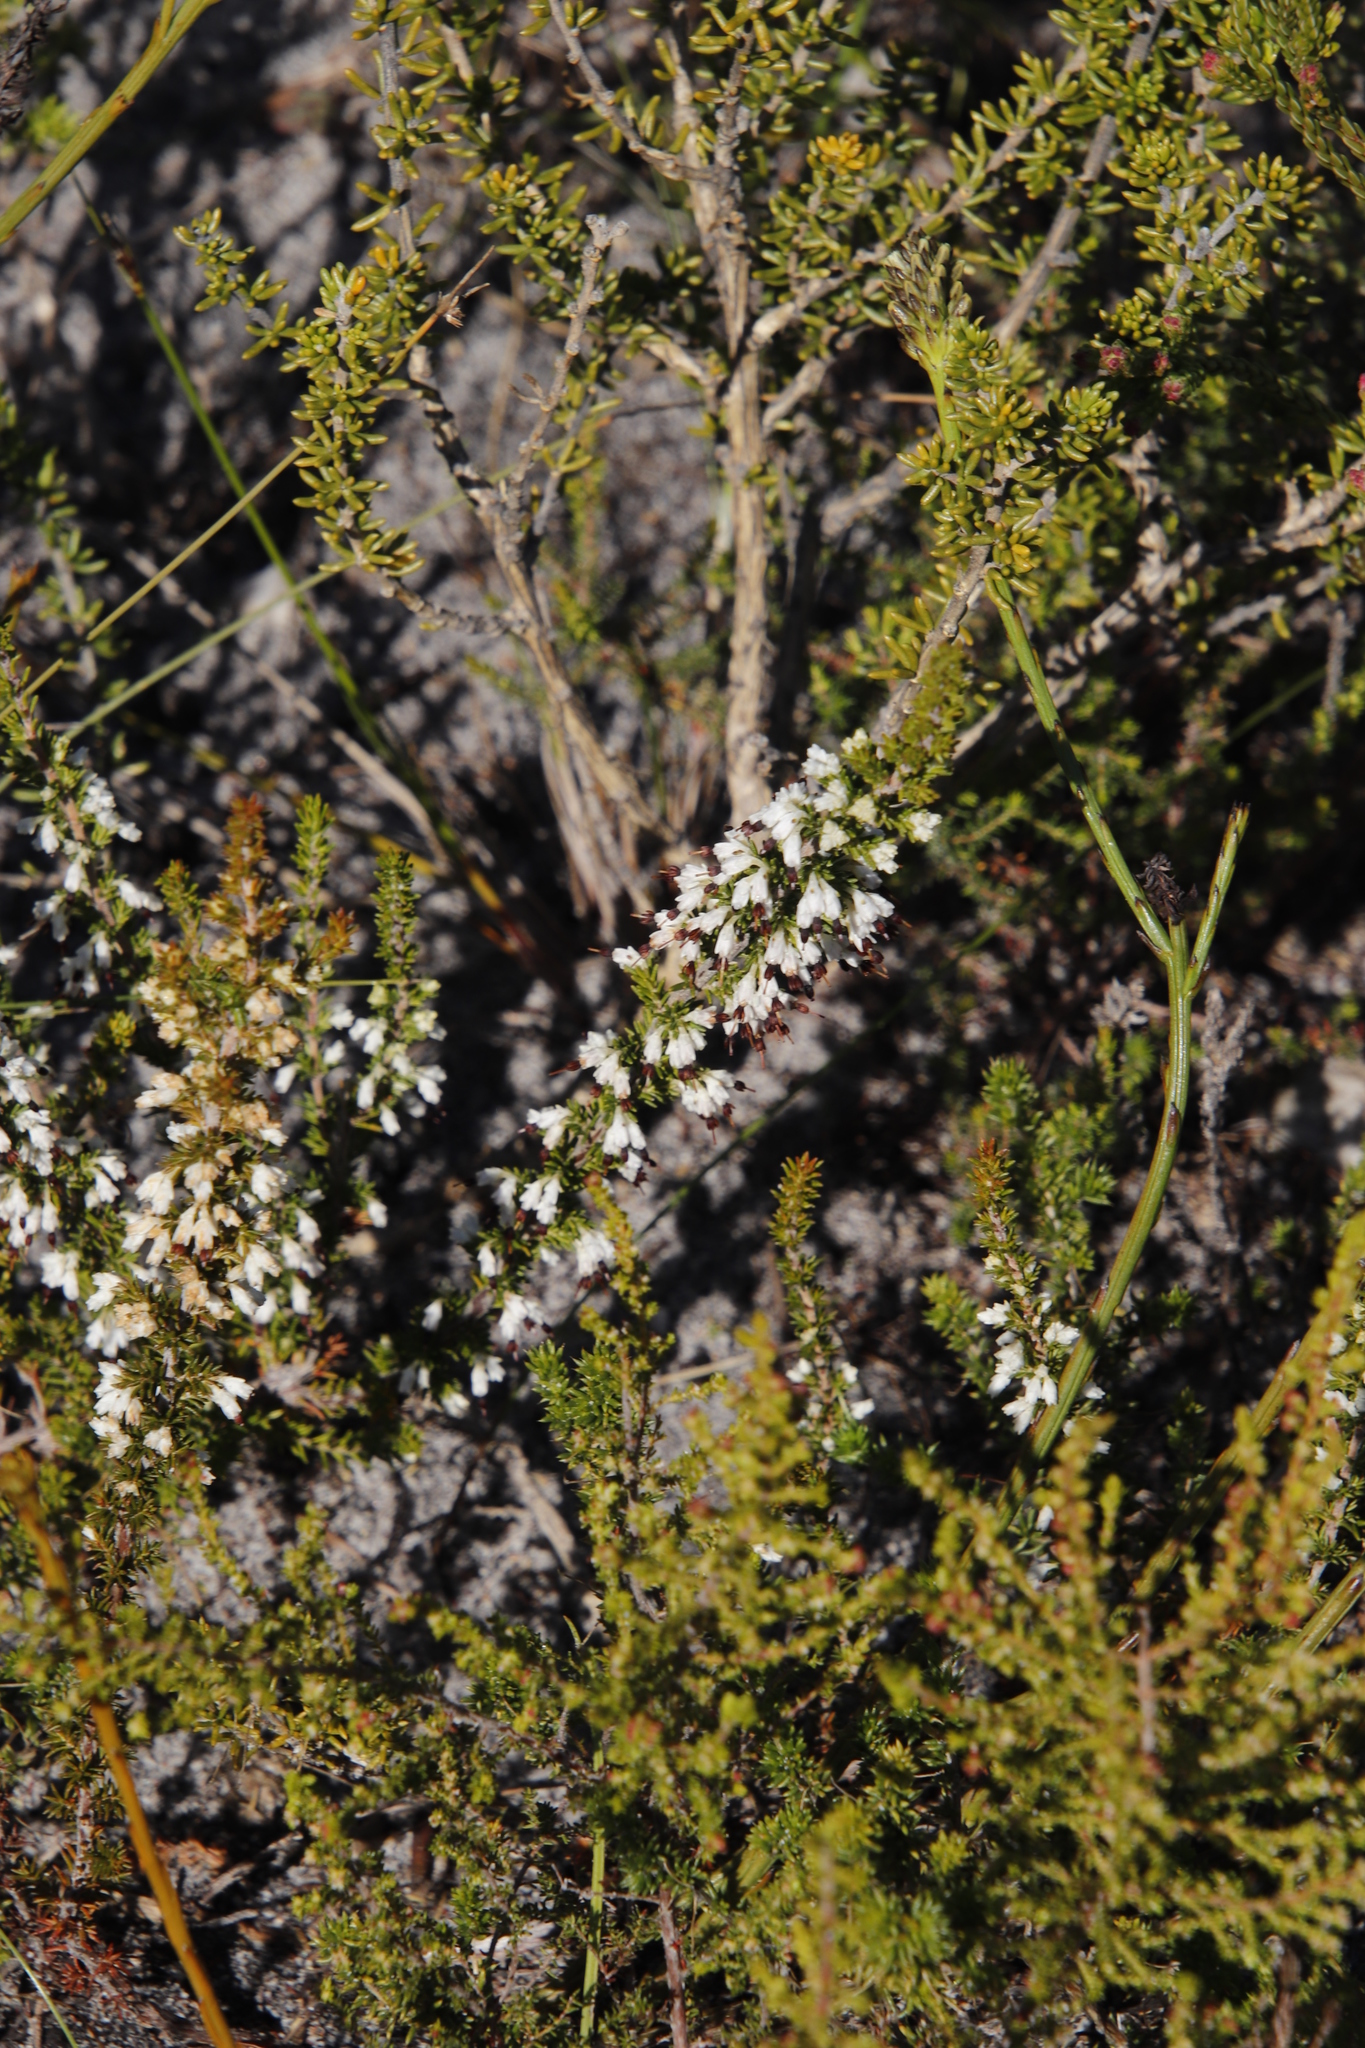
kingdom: Plantae
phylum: Tracheophyta
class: Magnoliopsida
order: Ericales
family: Ericaceae
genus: Erica
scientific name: Erica imbricata
